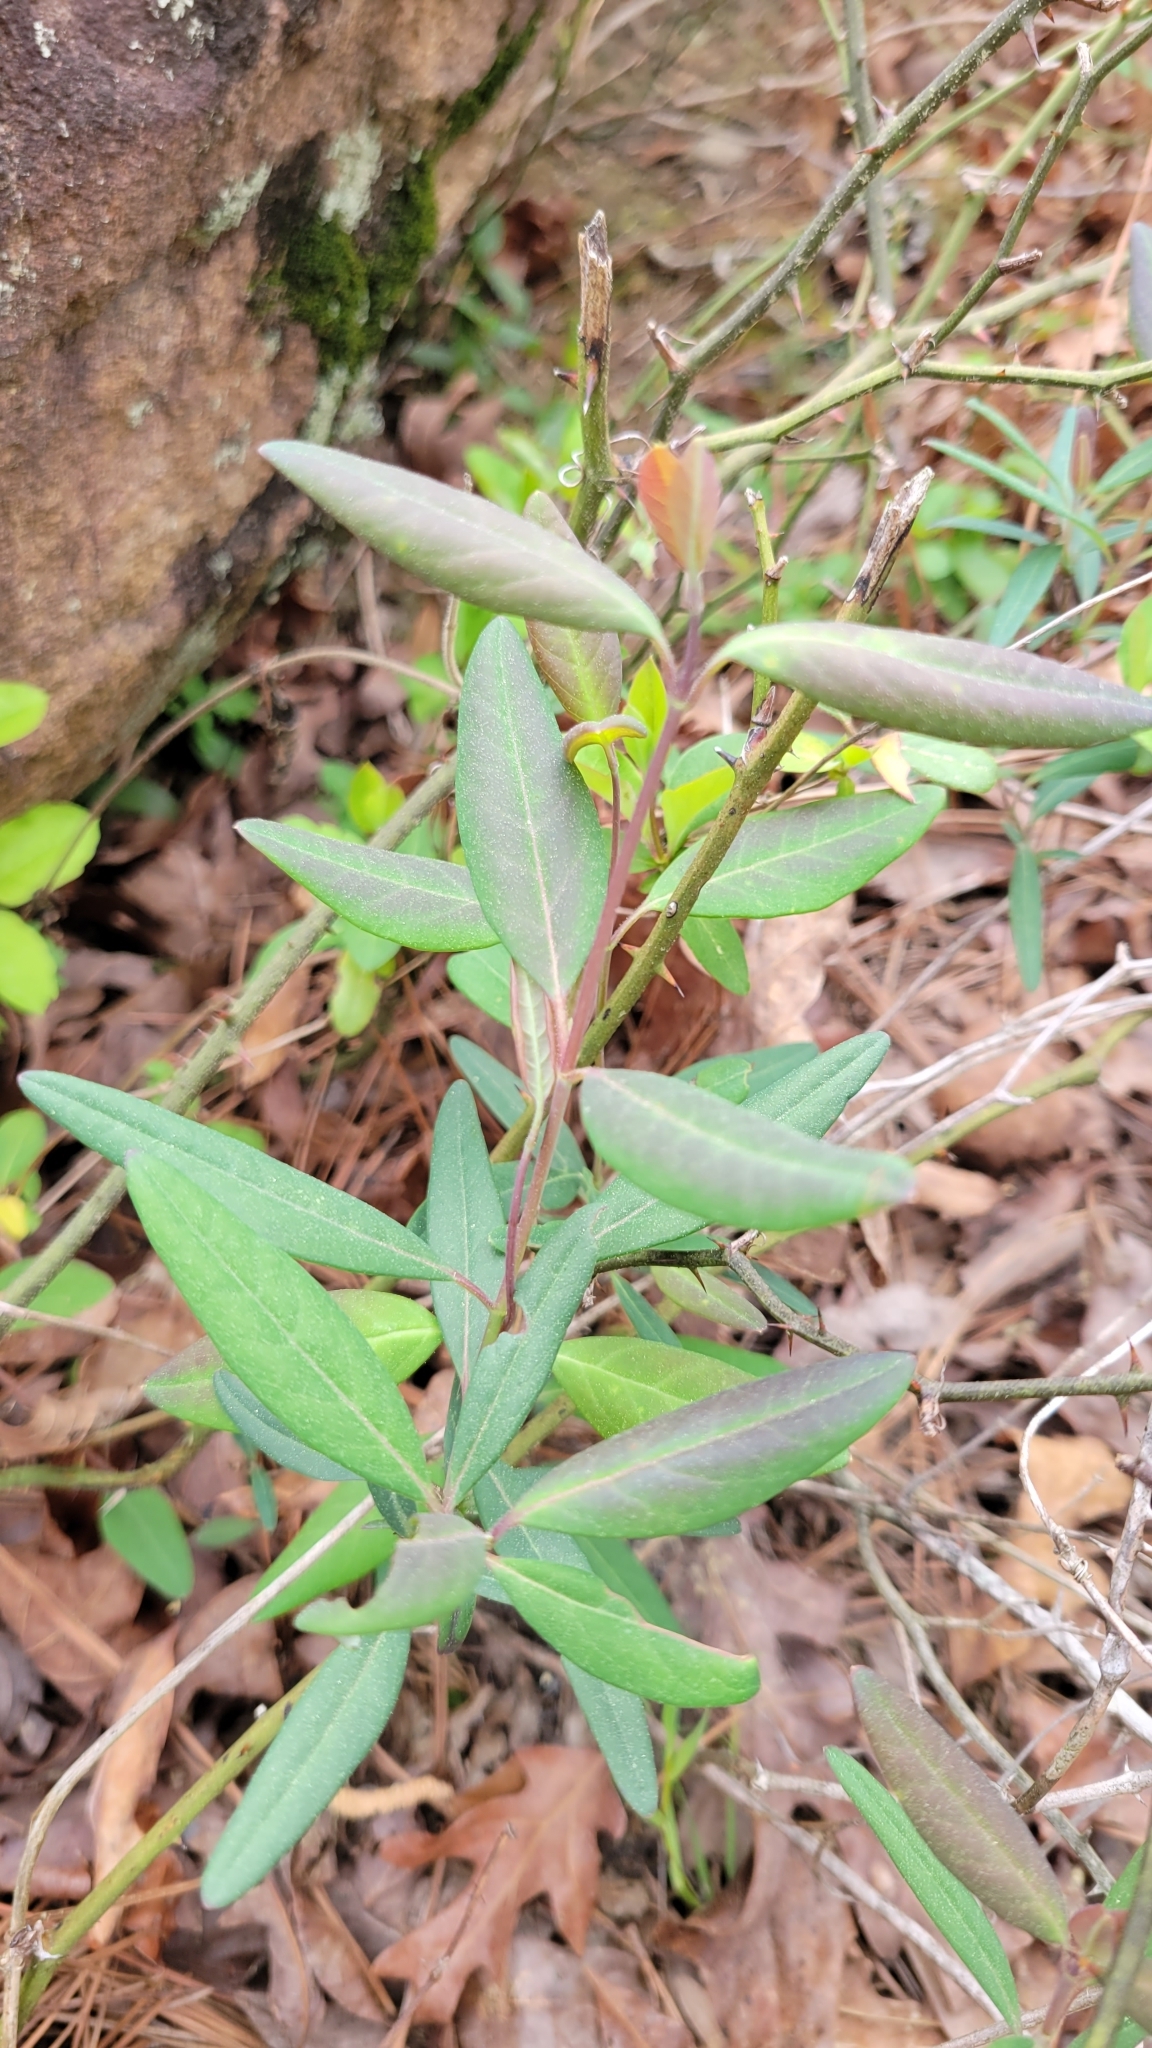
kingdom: Plantae
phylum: Tracheophyta
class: Magnoliopsida
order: Dipsacales
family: Caprifoliaceae
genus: Lonicera
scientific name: Lonicera sempervirens
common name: Coral honeysuckle
